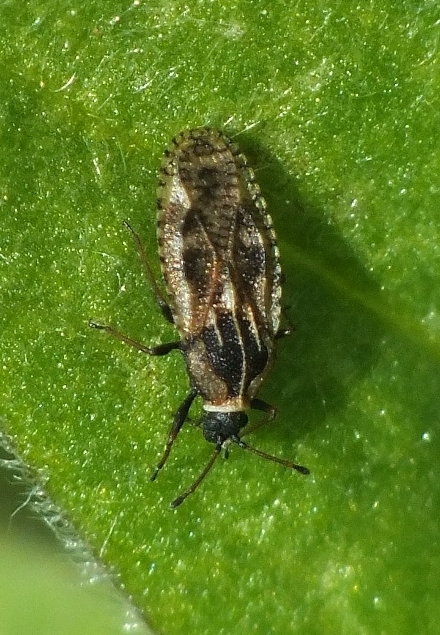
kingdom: Animalia
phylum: Arthropoda
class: Insecta
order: Hemiptera
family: Tingidae
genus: Dictyla
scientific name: Dictyla echii
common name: Lace bug
